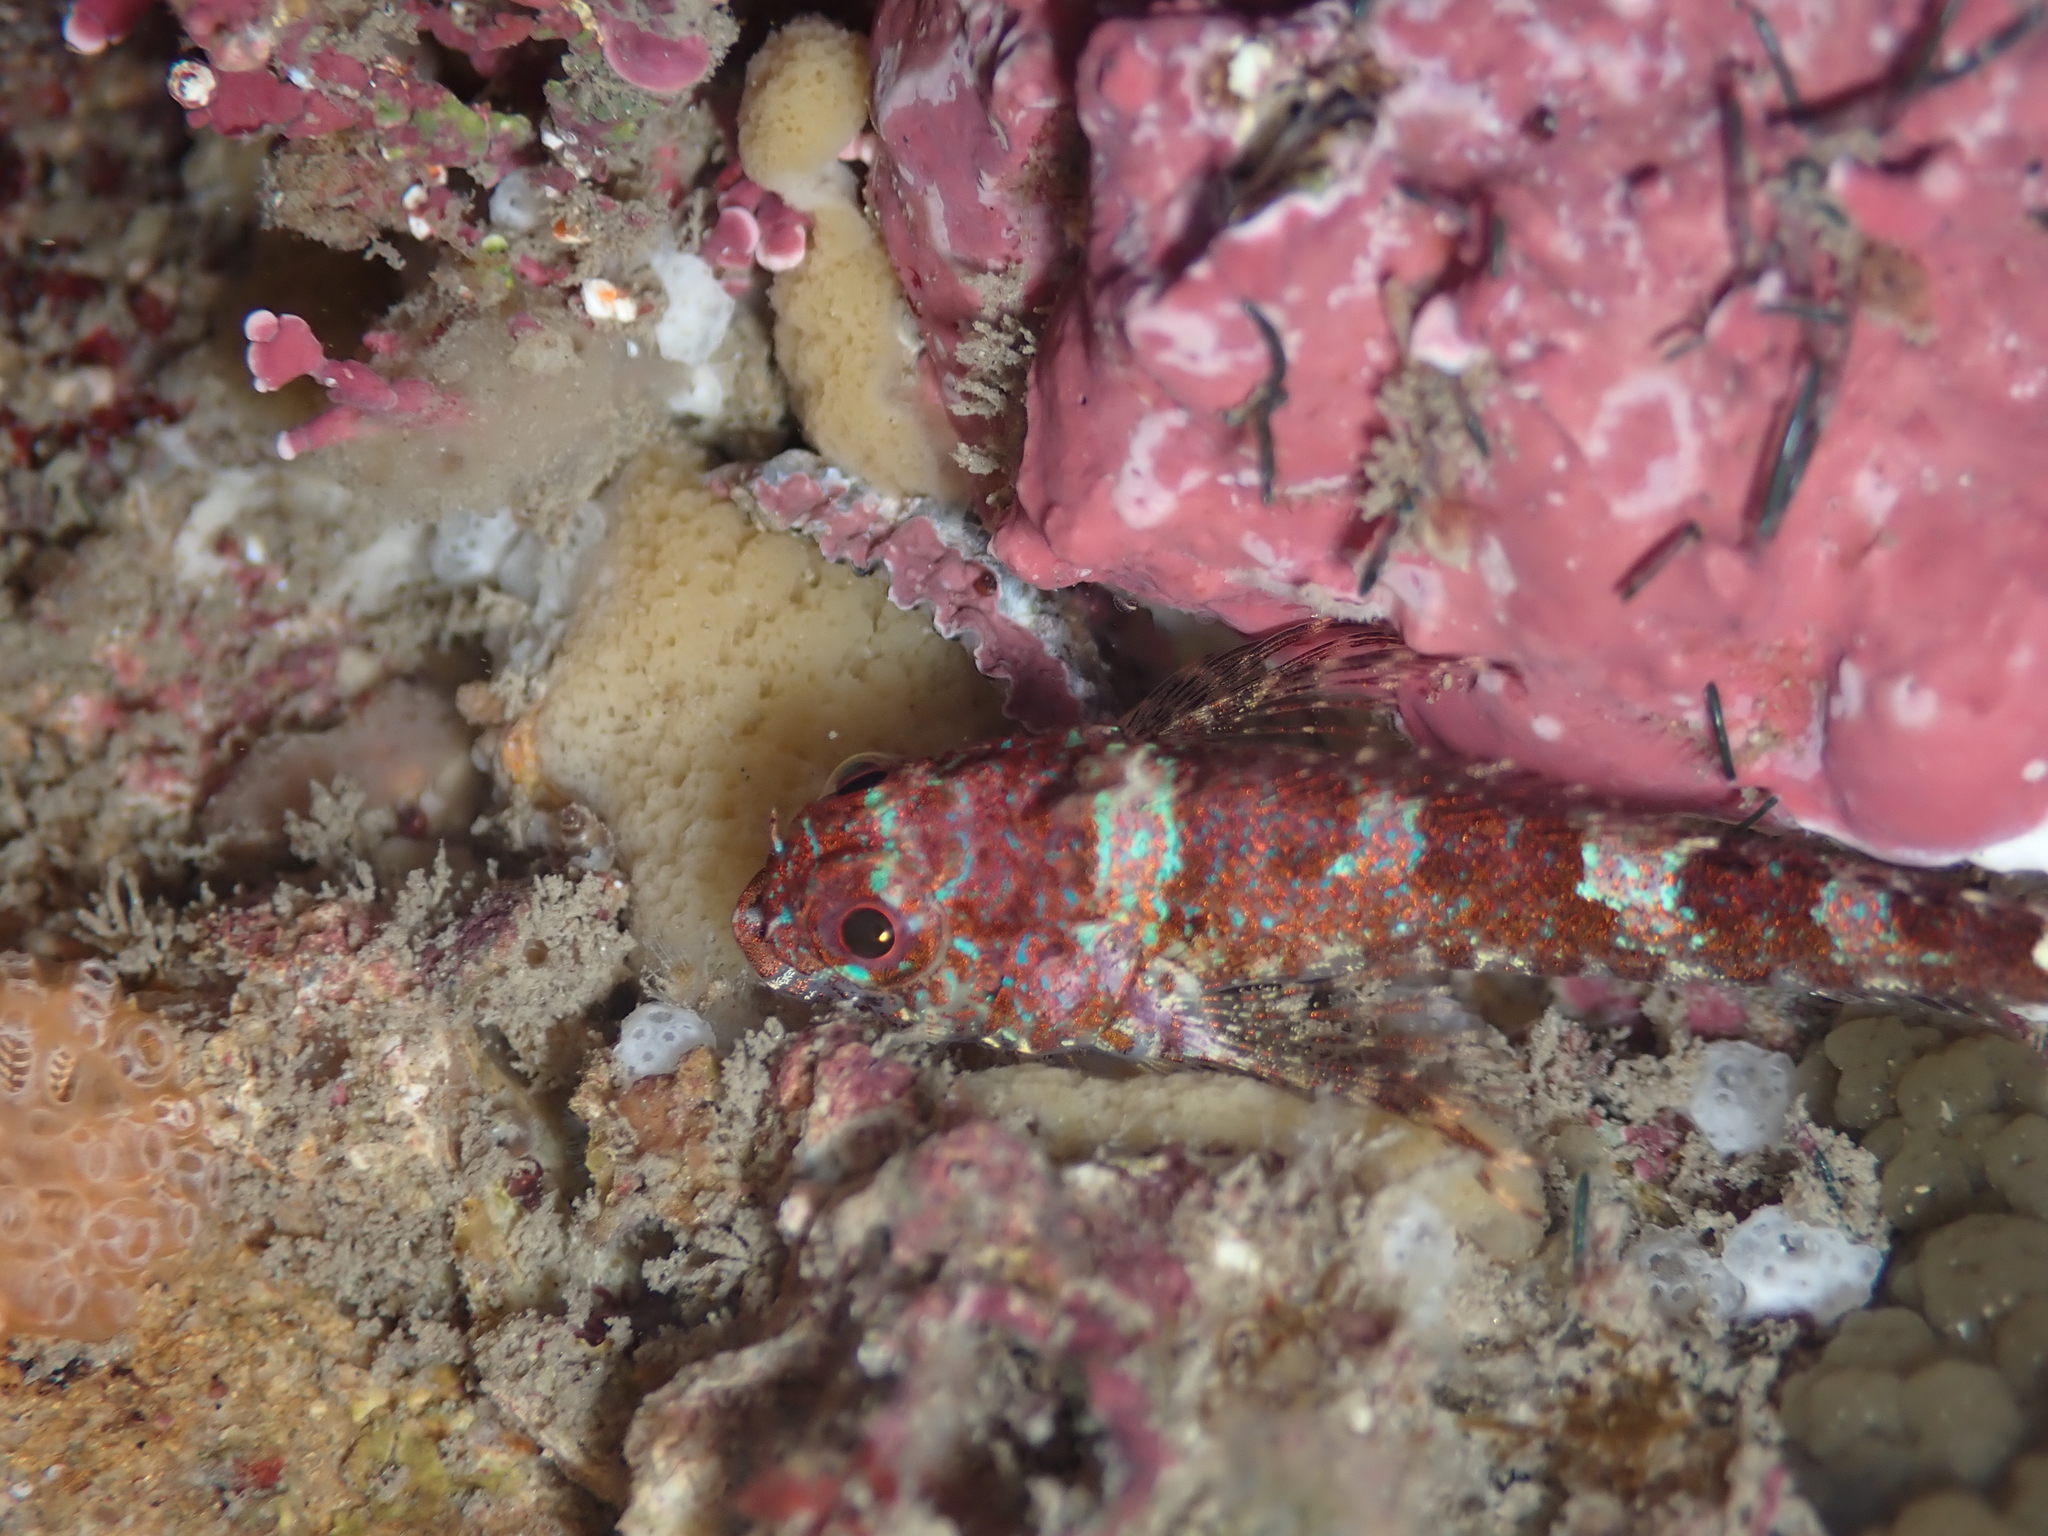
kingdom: Animalia
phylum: Chordata
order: Perciformes
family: Tripterygiidae
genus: Cryptichthys
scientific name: Cryptichthys jojettae
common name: Cryptic triplefin
